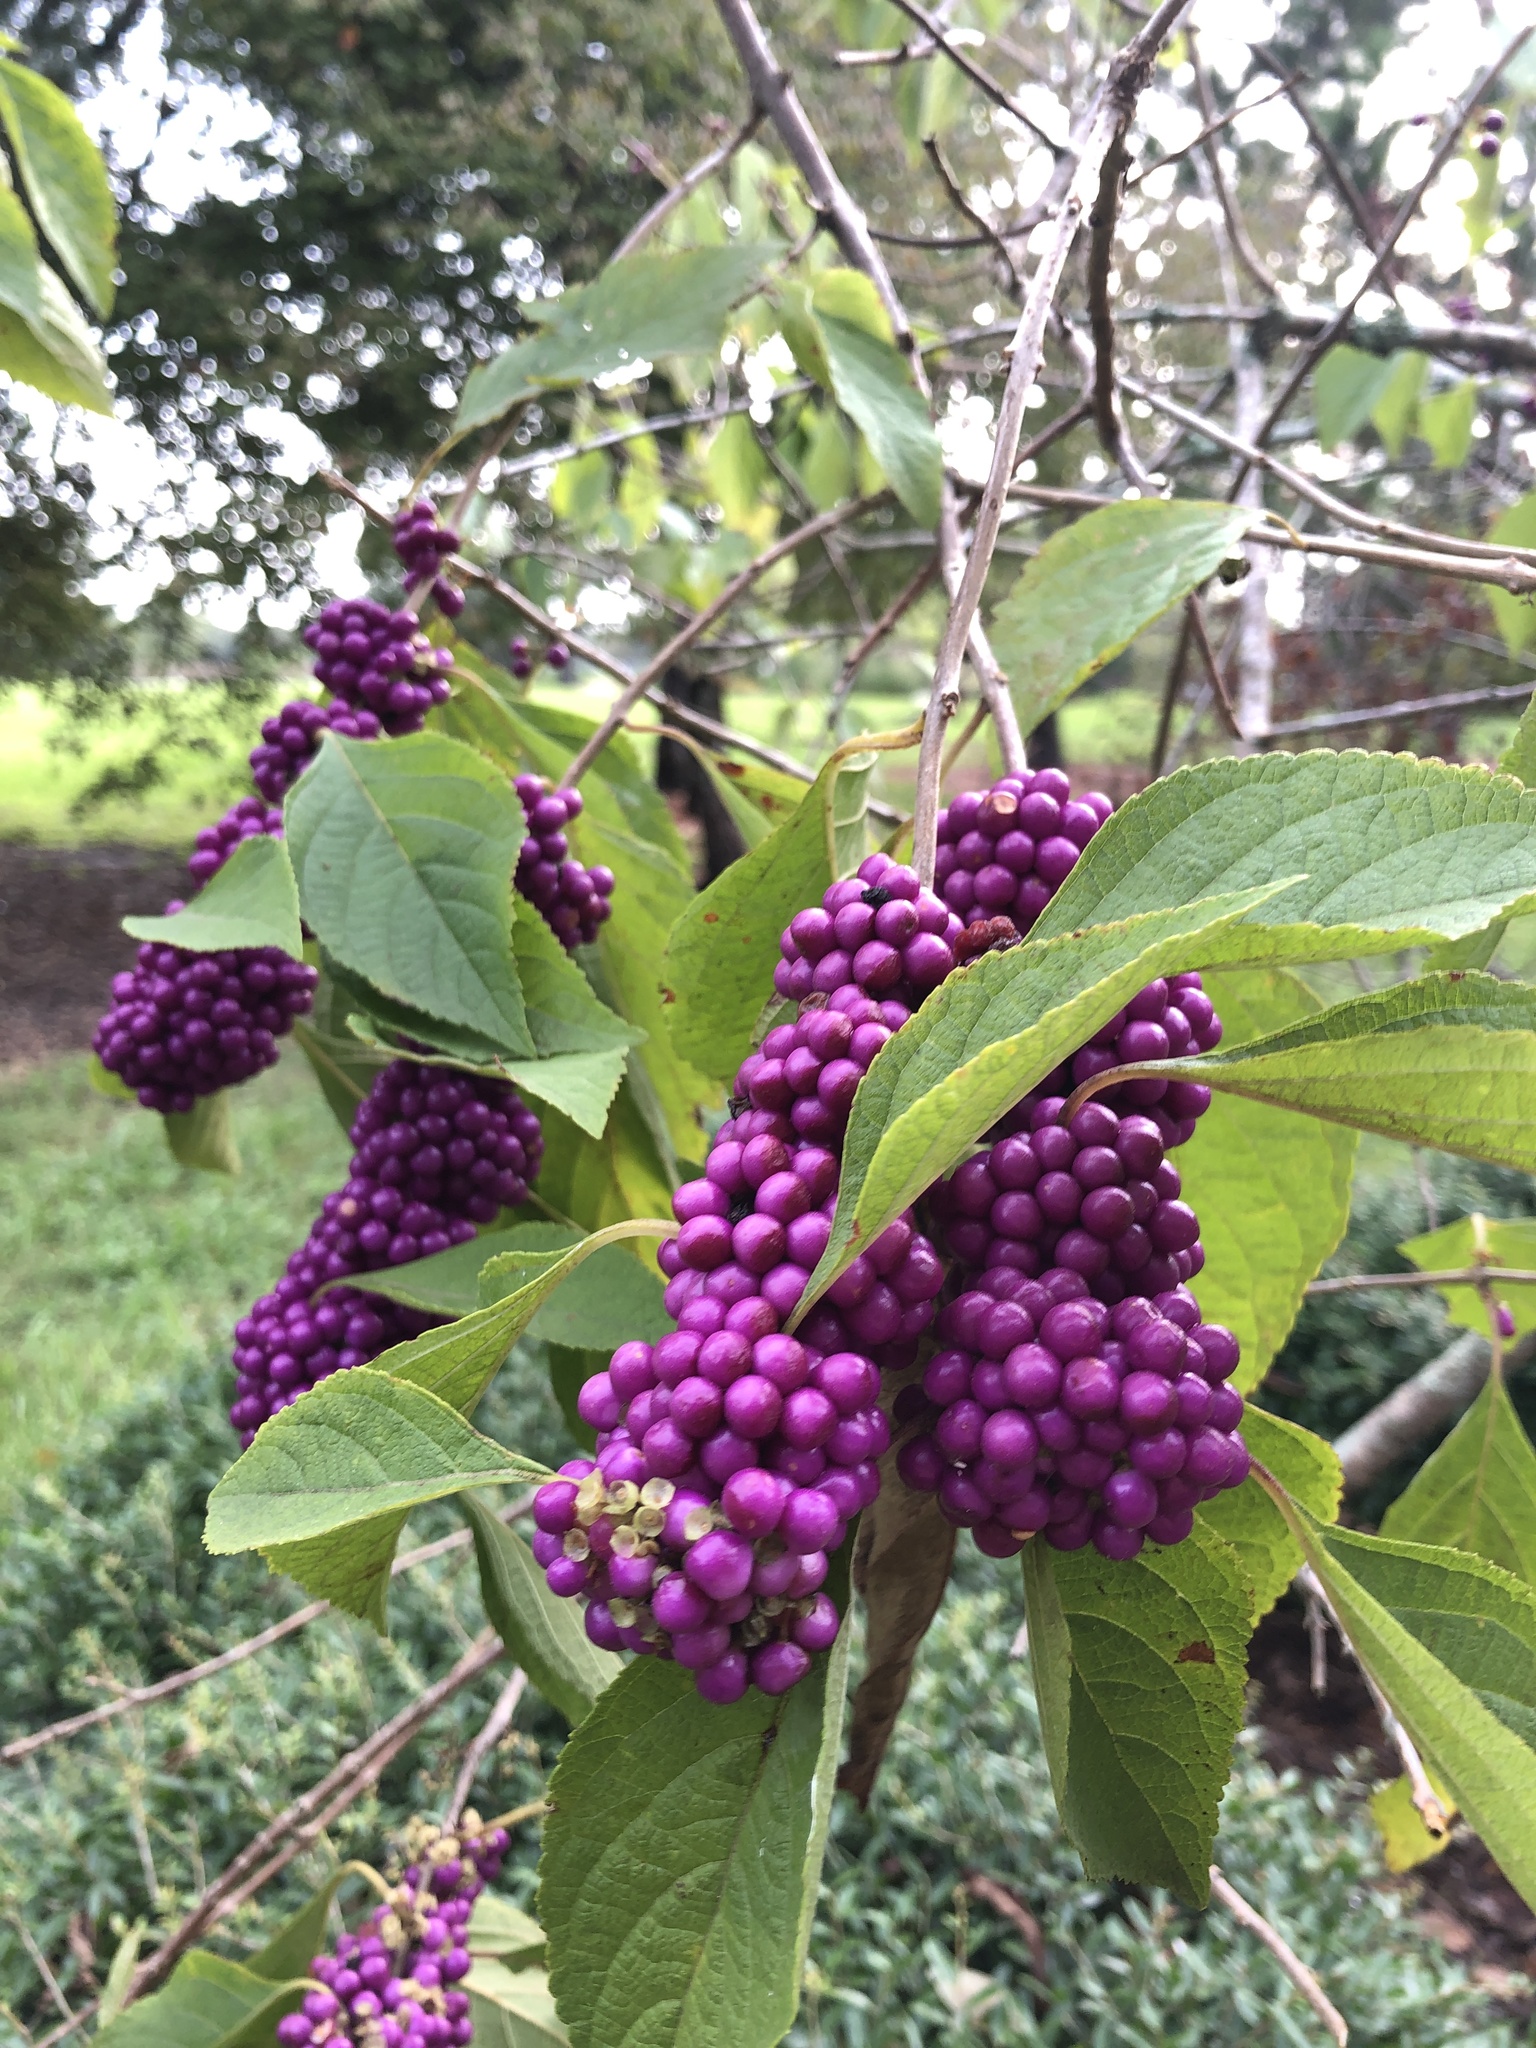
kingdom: Plantae
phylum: Tracheophyta
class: Magnoliopsida
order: Lamiales
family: Lamiaceae
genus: Callicarpa
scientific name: Callicarpa americana
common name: American beautyberry
